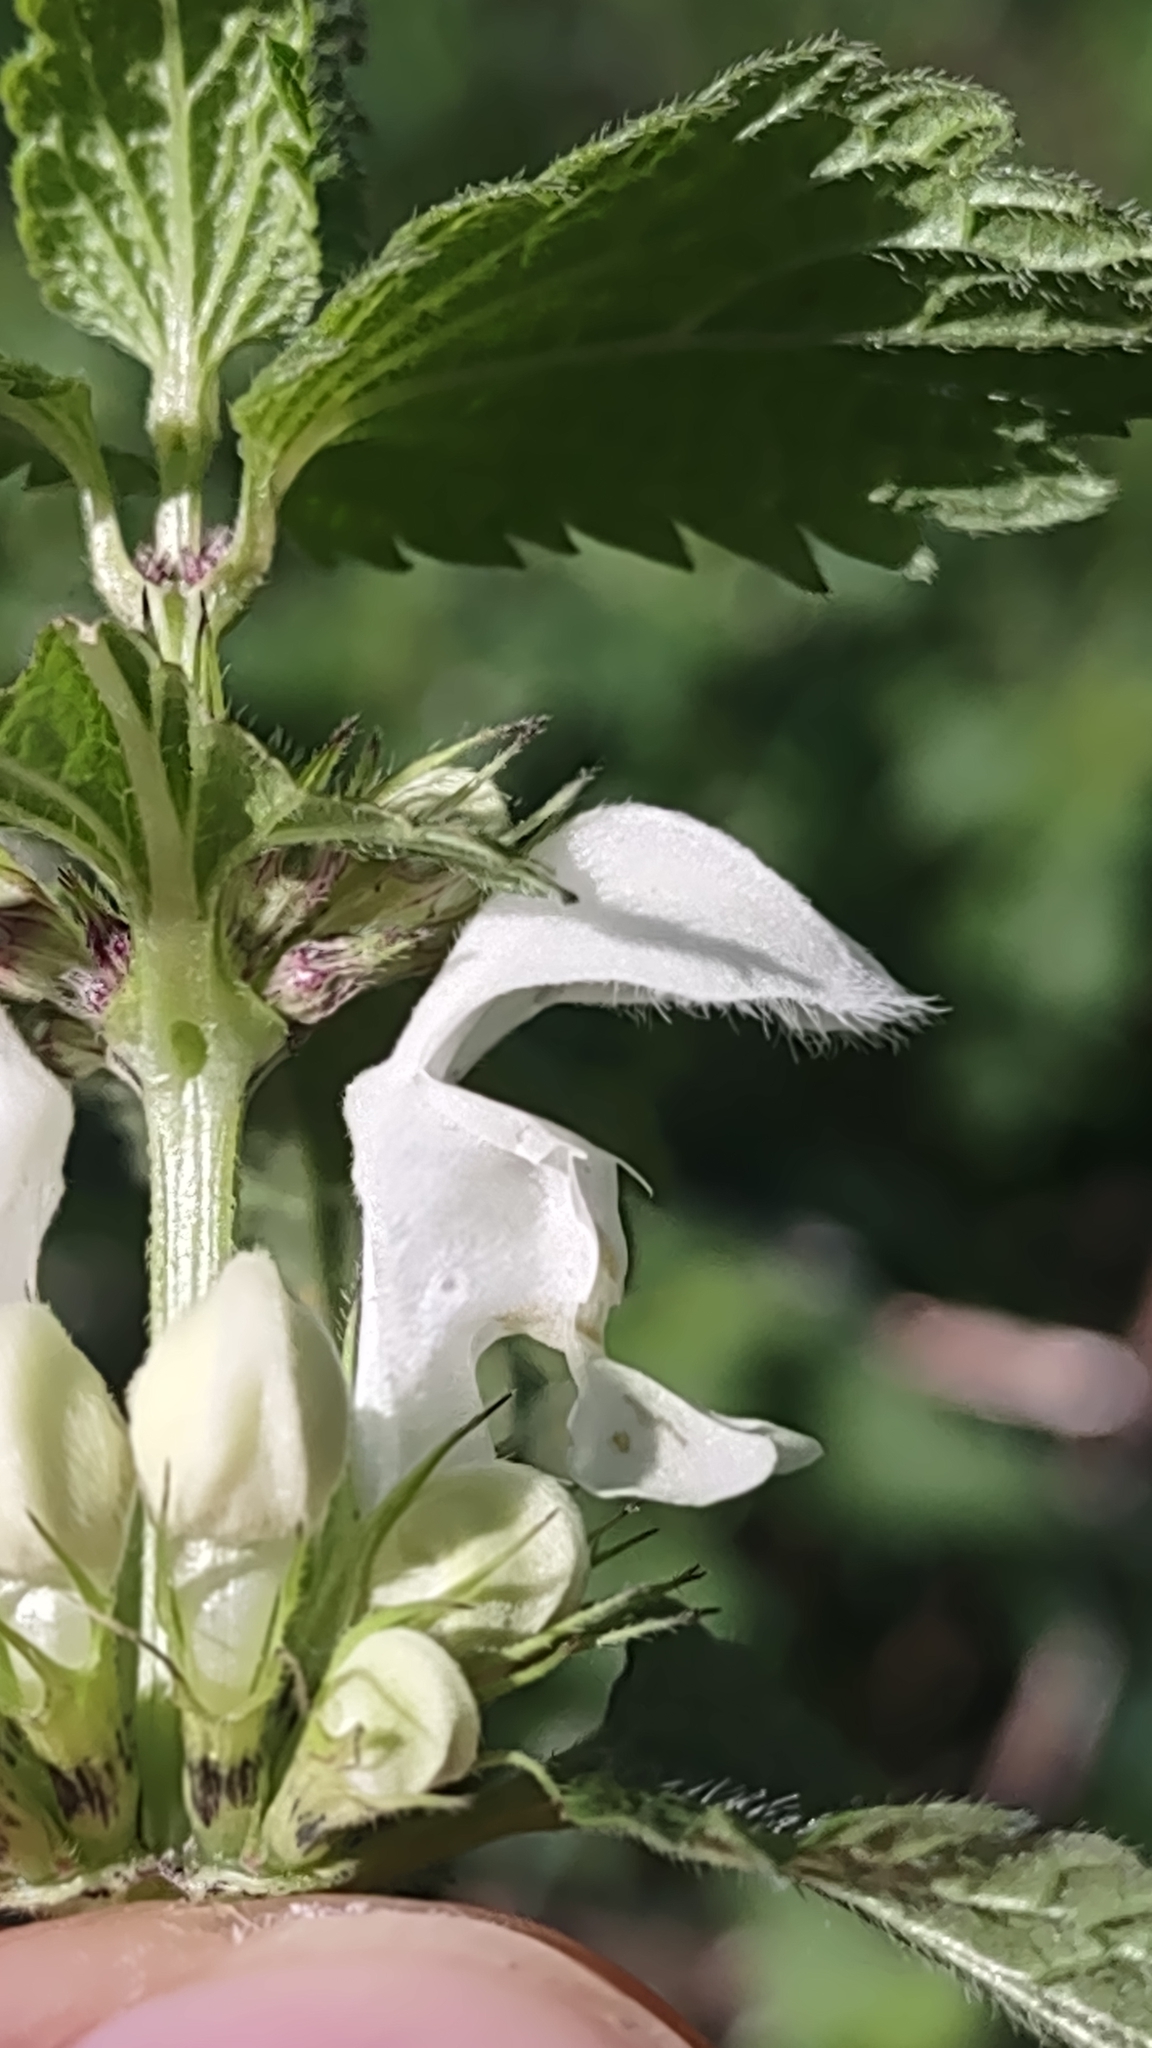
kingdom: Plantae
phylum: Tracheophyta
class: Magnoliopsida
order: Lamiales
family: Lamiaceae
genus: Lamium
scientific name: Lamium album
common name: White dead-nettle
